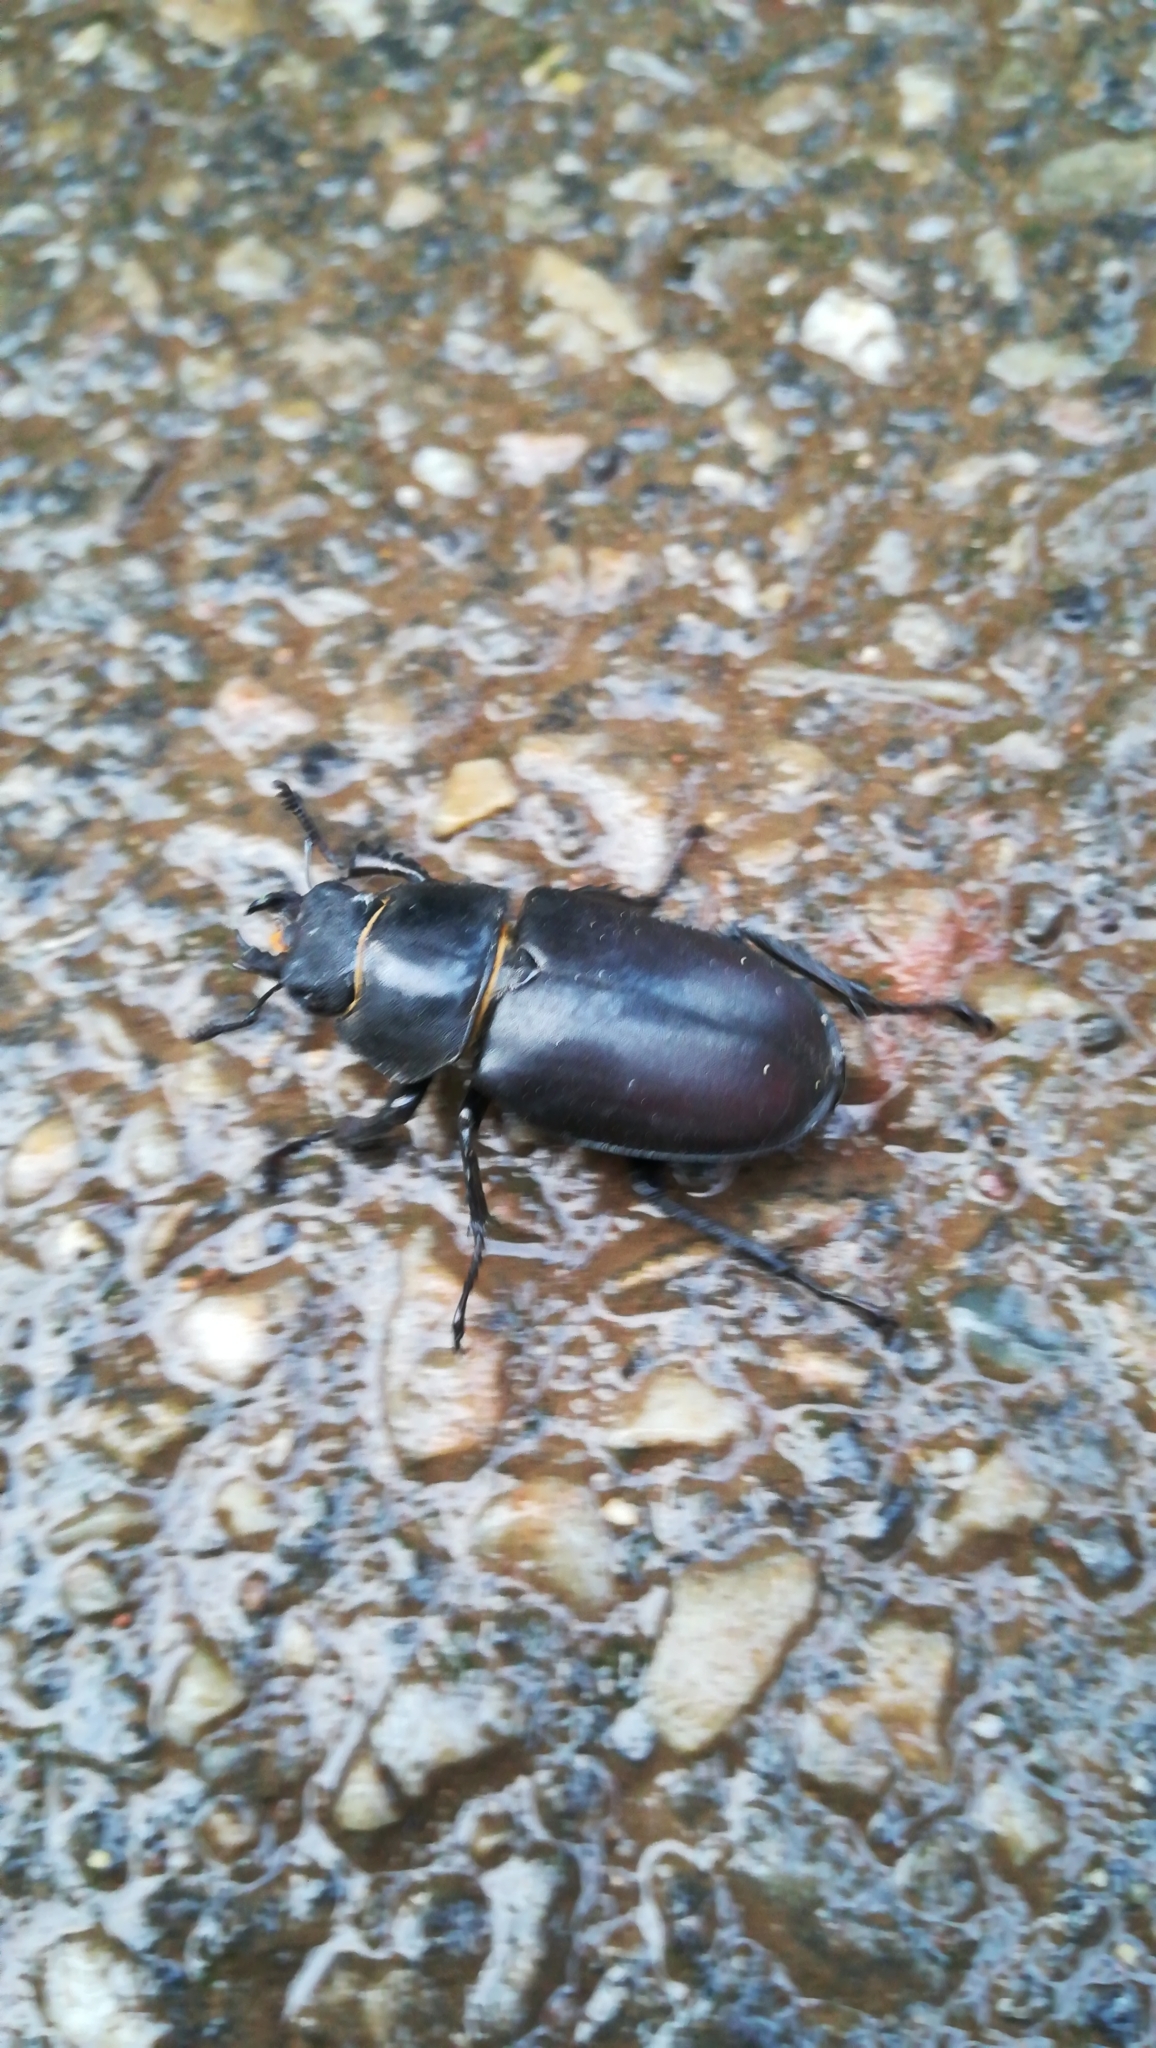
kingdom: Animalia
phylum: Arthropoda
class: Insecta
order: Coleoptera
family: Lucanidae
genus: Lucanus
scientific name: Lucanus cervus
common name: Stag beetle
